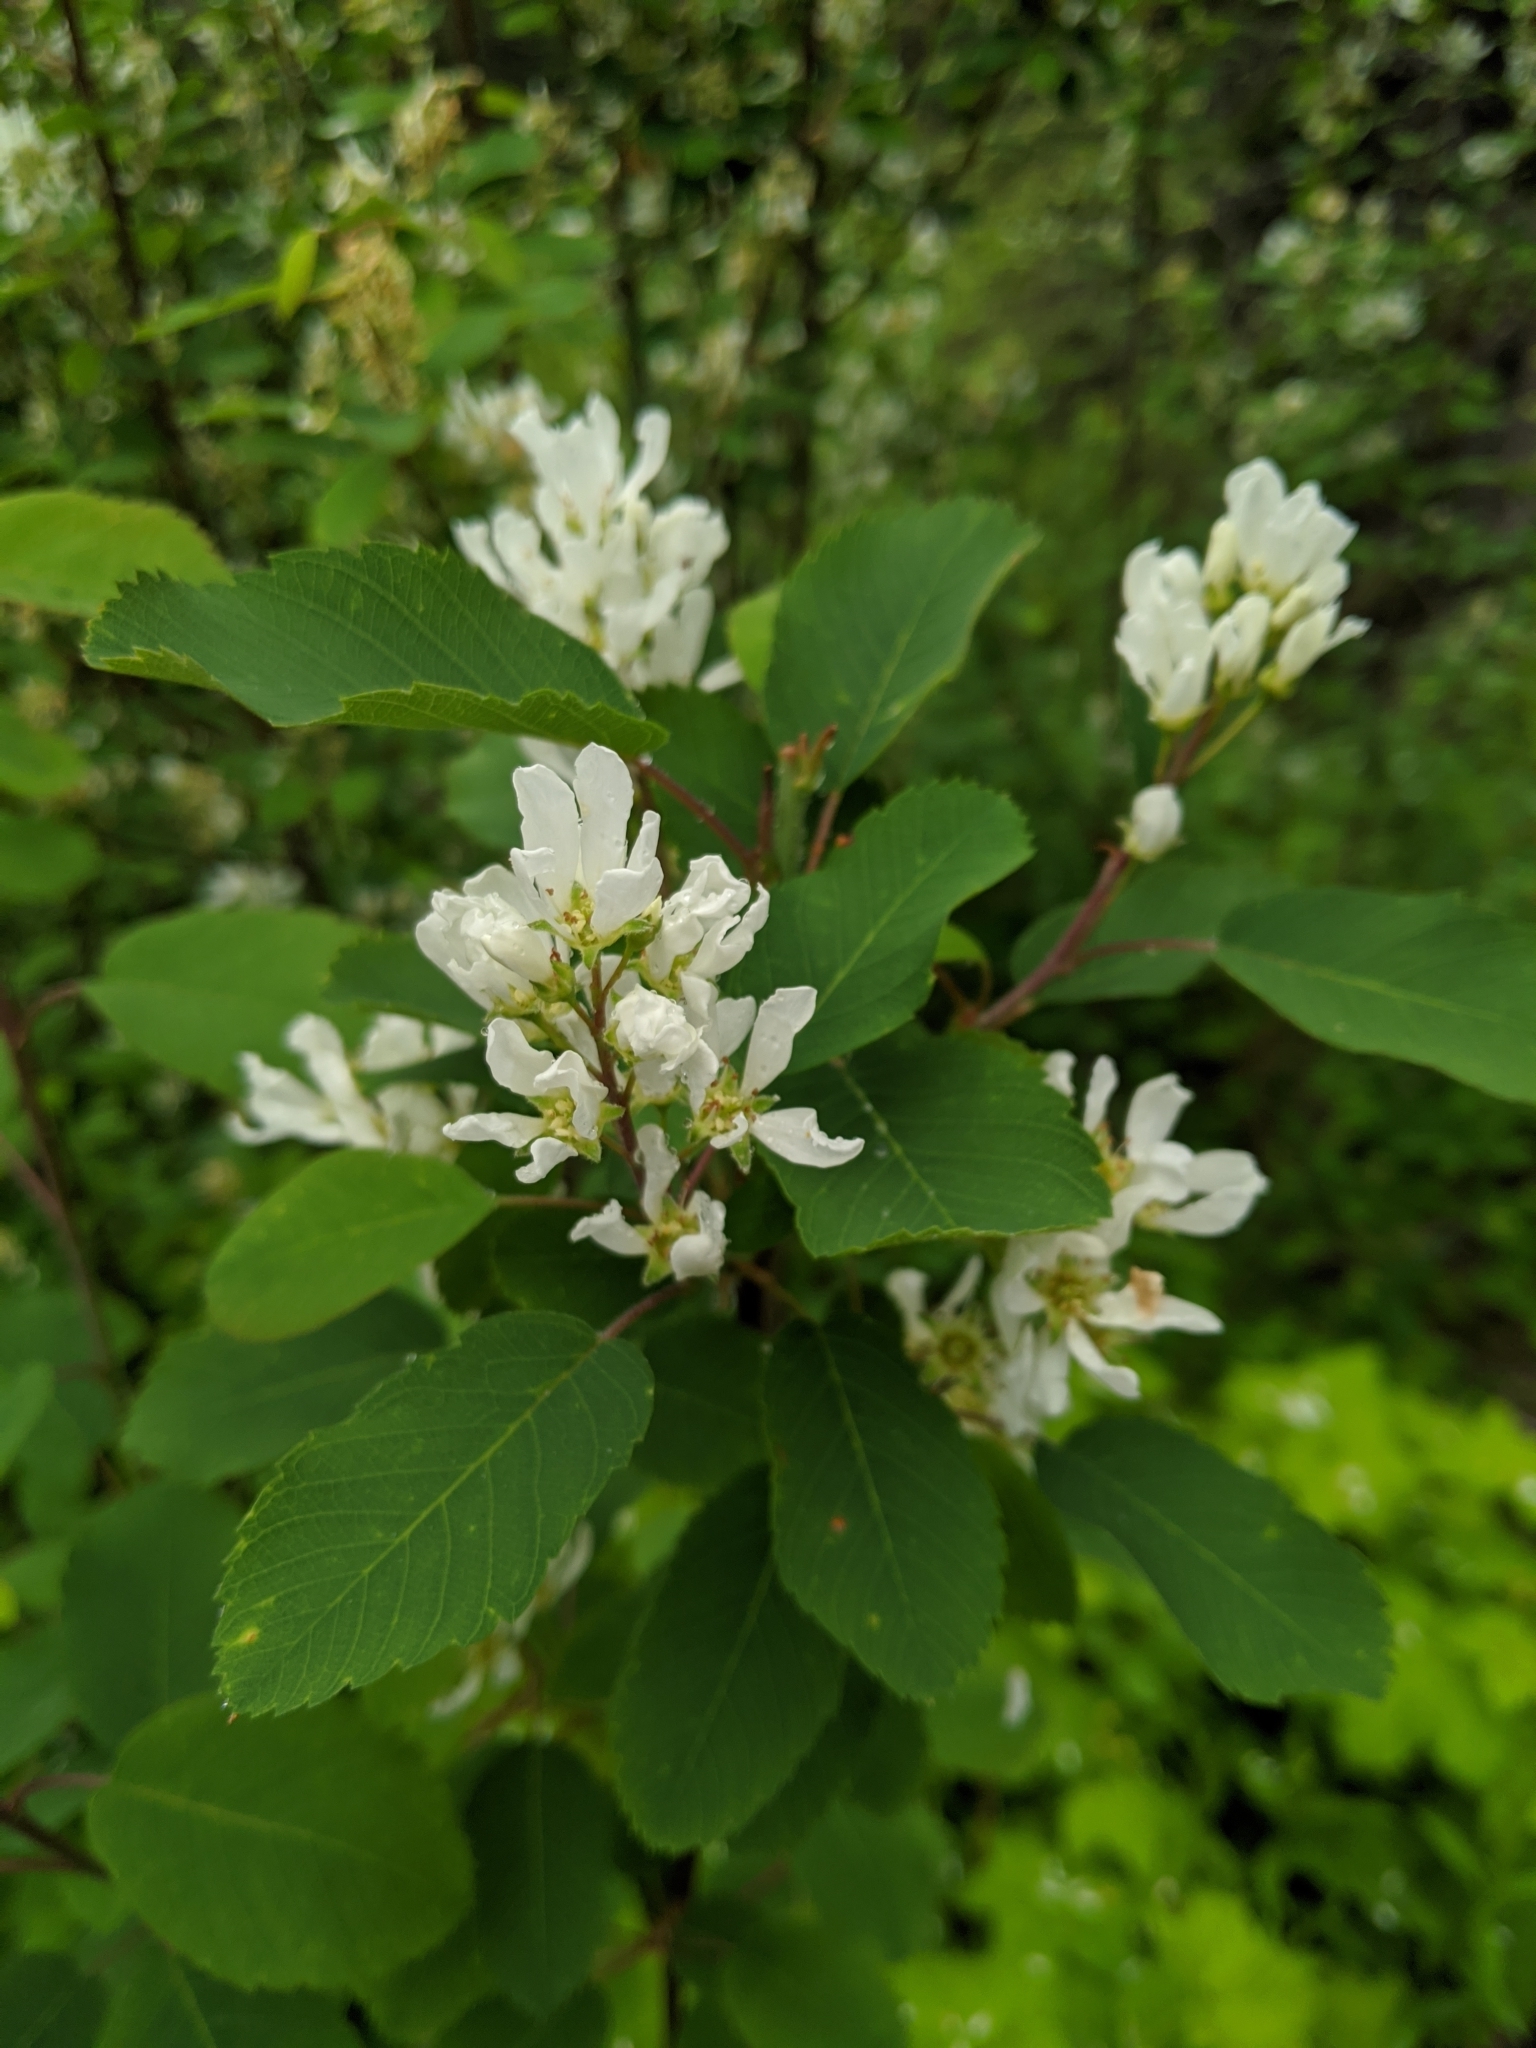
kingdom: Plantae
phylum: Tracheophyta
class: Magnoliopsida
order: Rosales
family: Rosaceae
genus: Amelanchier
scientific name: Amelanchier alnifolia
